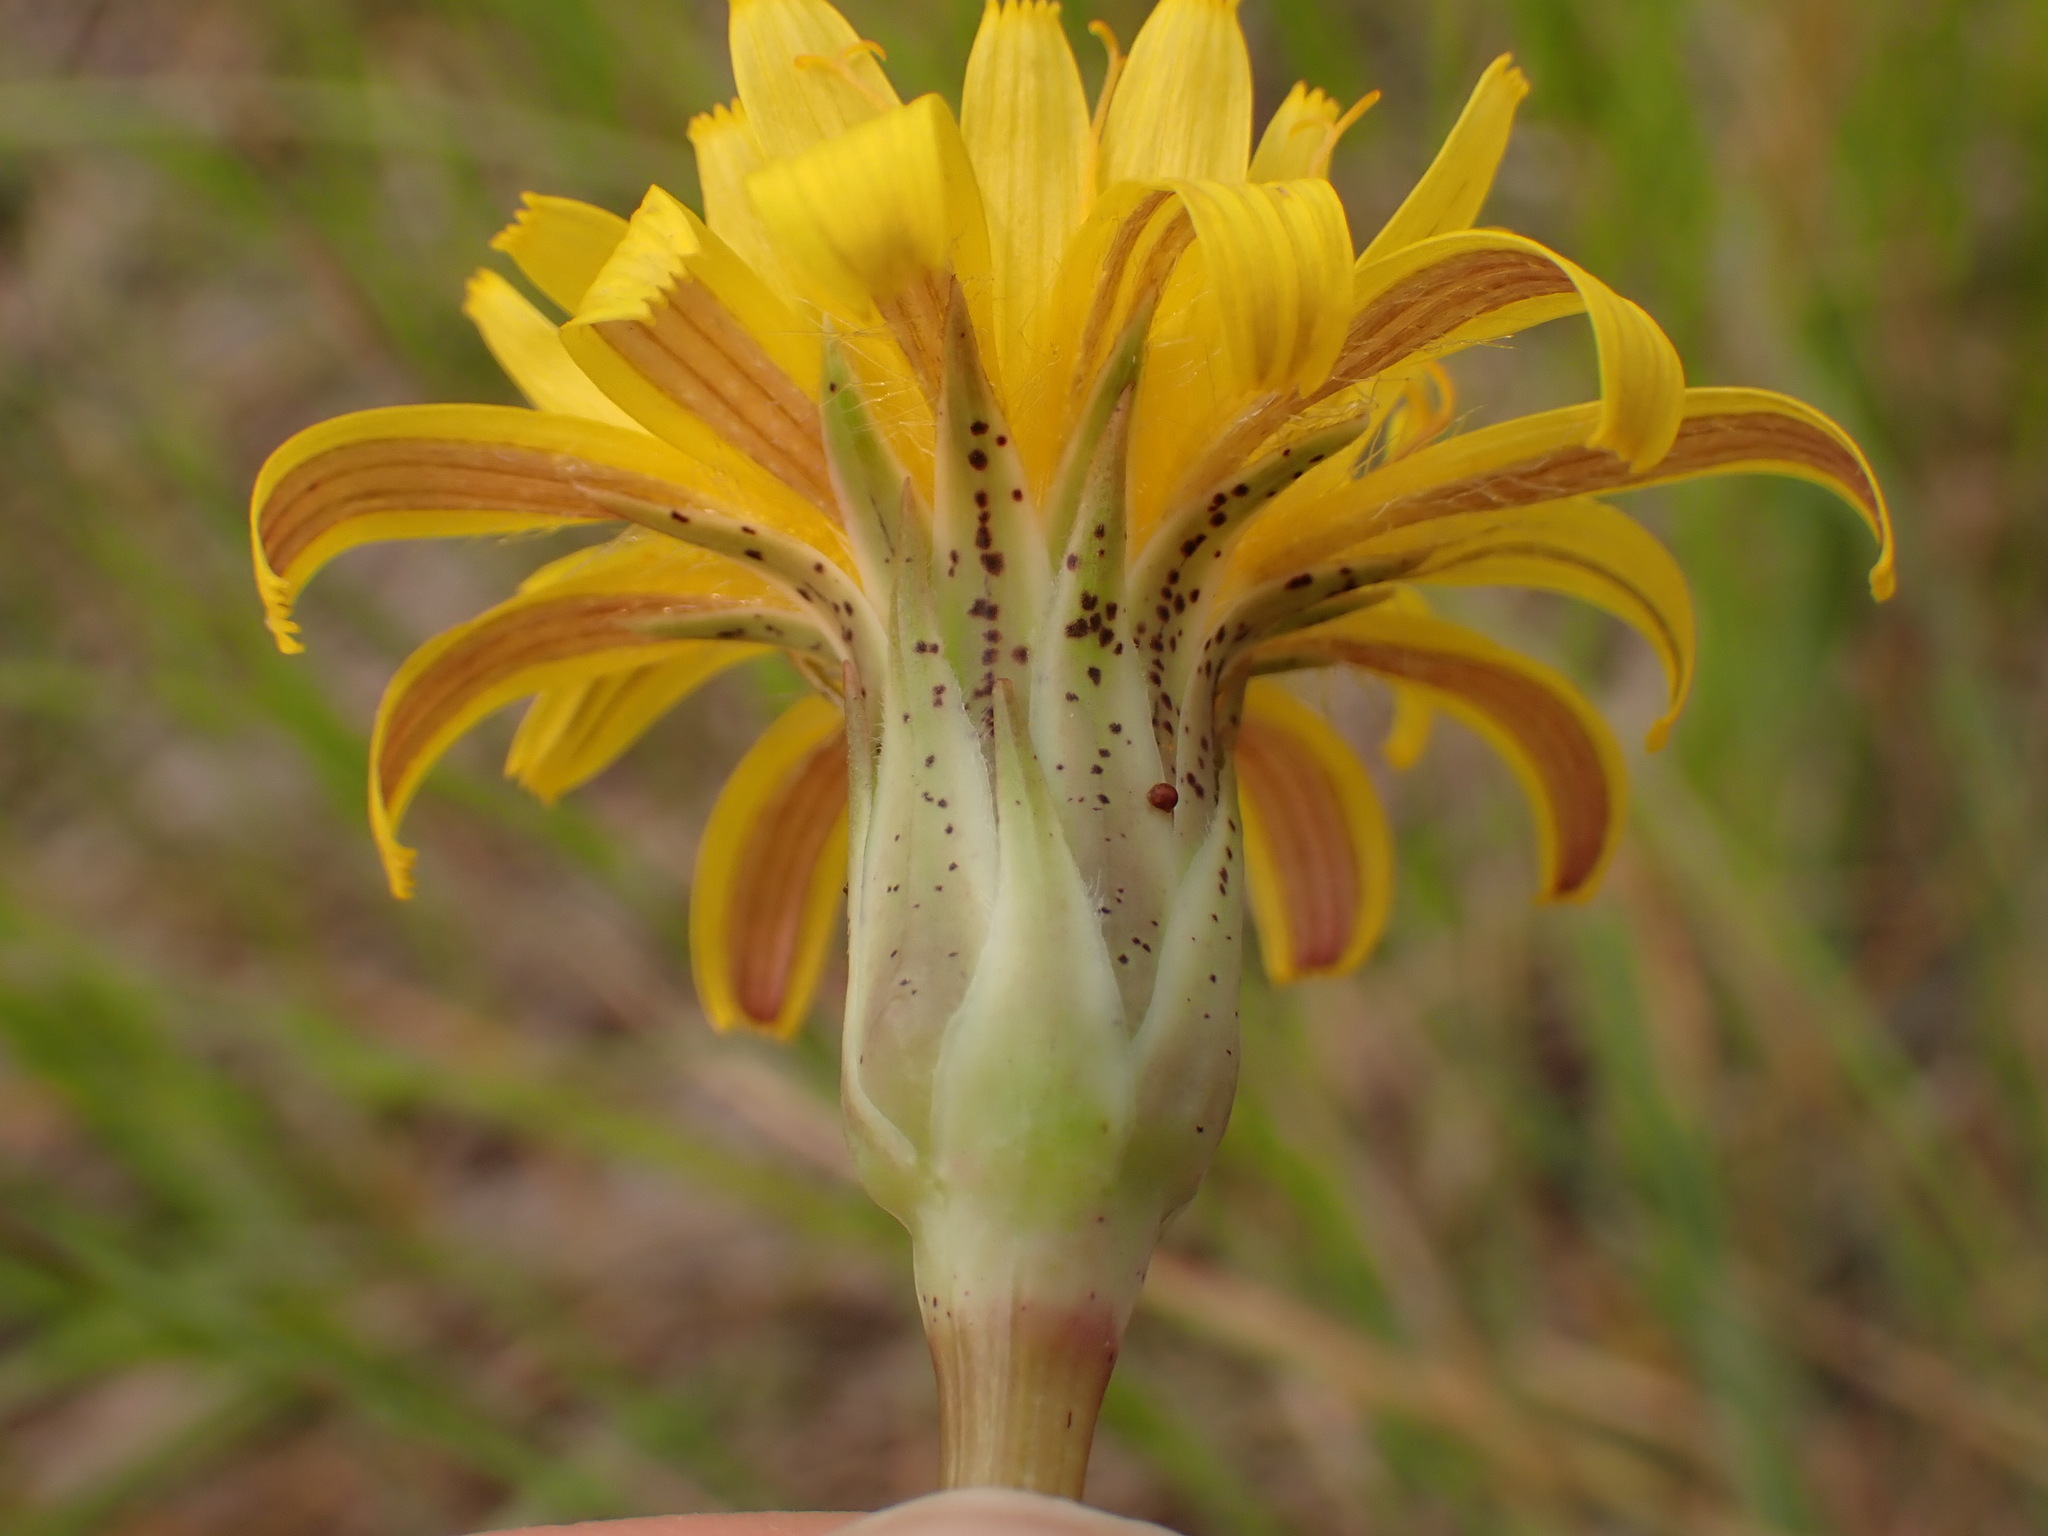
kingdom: Plantae
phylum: Tracheophyta
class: Magnoliopsida
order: Asterales
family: Asteraceae
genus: Agoseris
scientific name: Agoseris glauca
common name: Prairie agoseris
